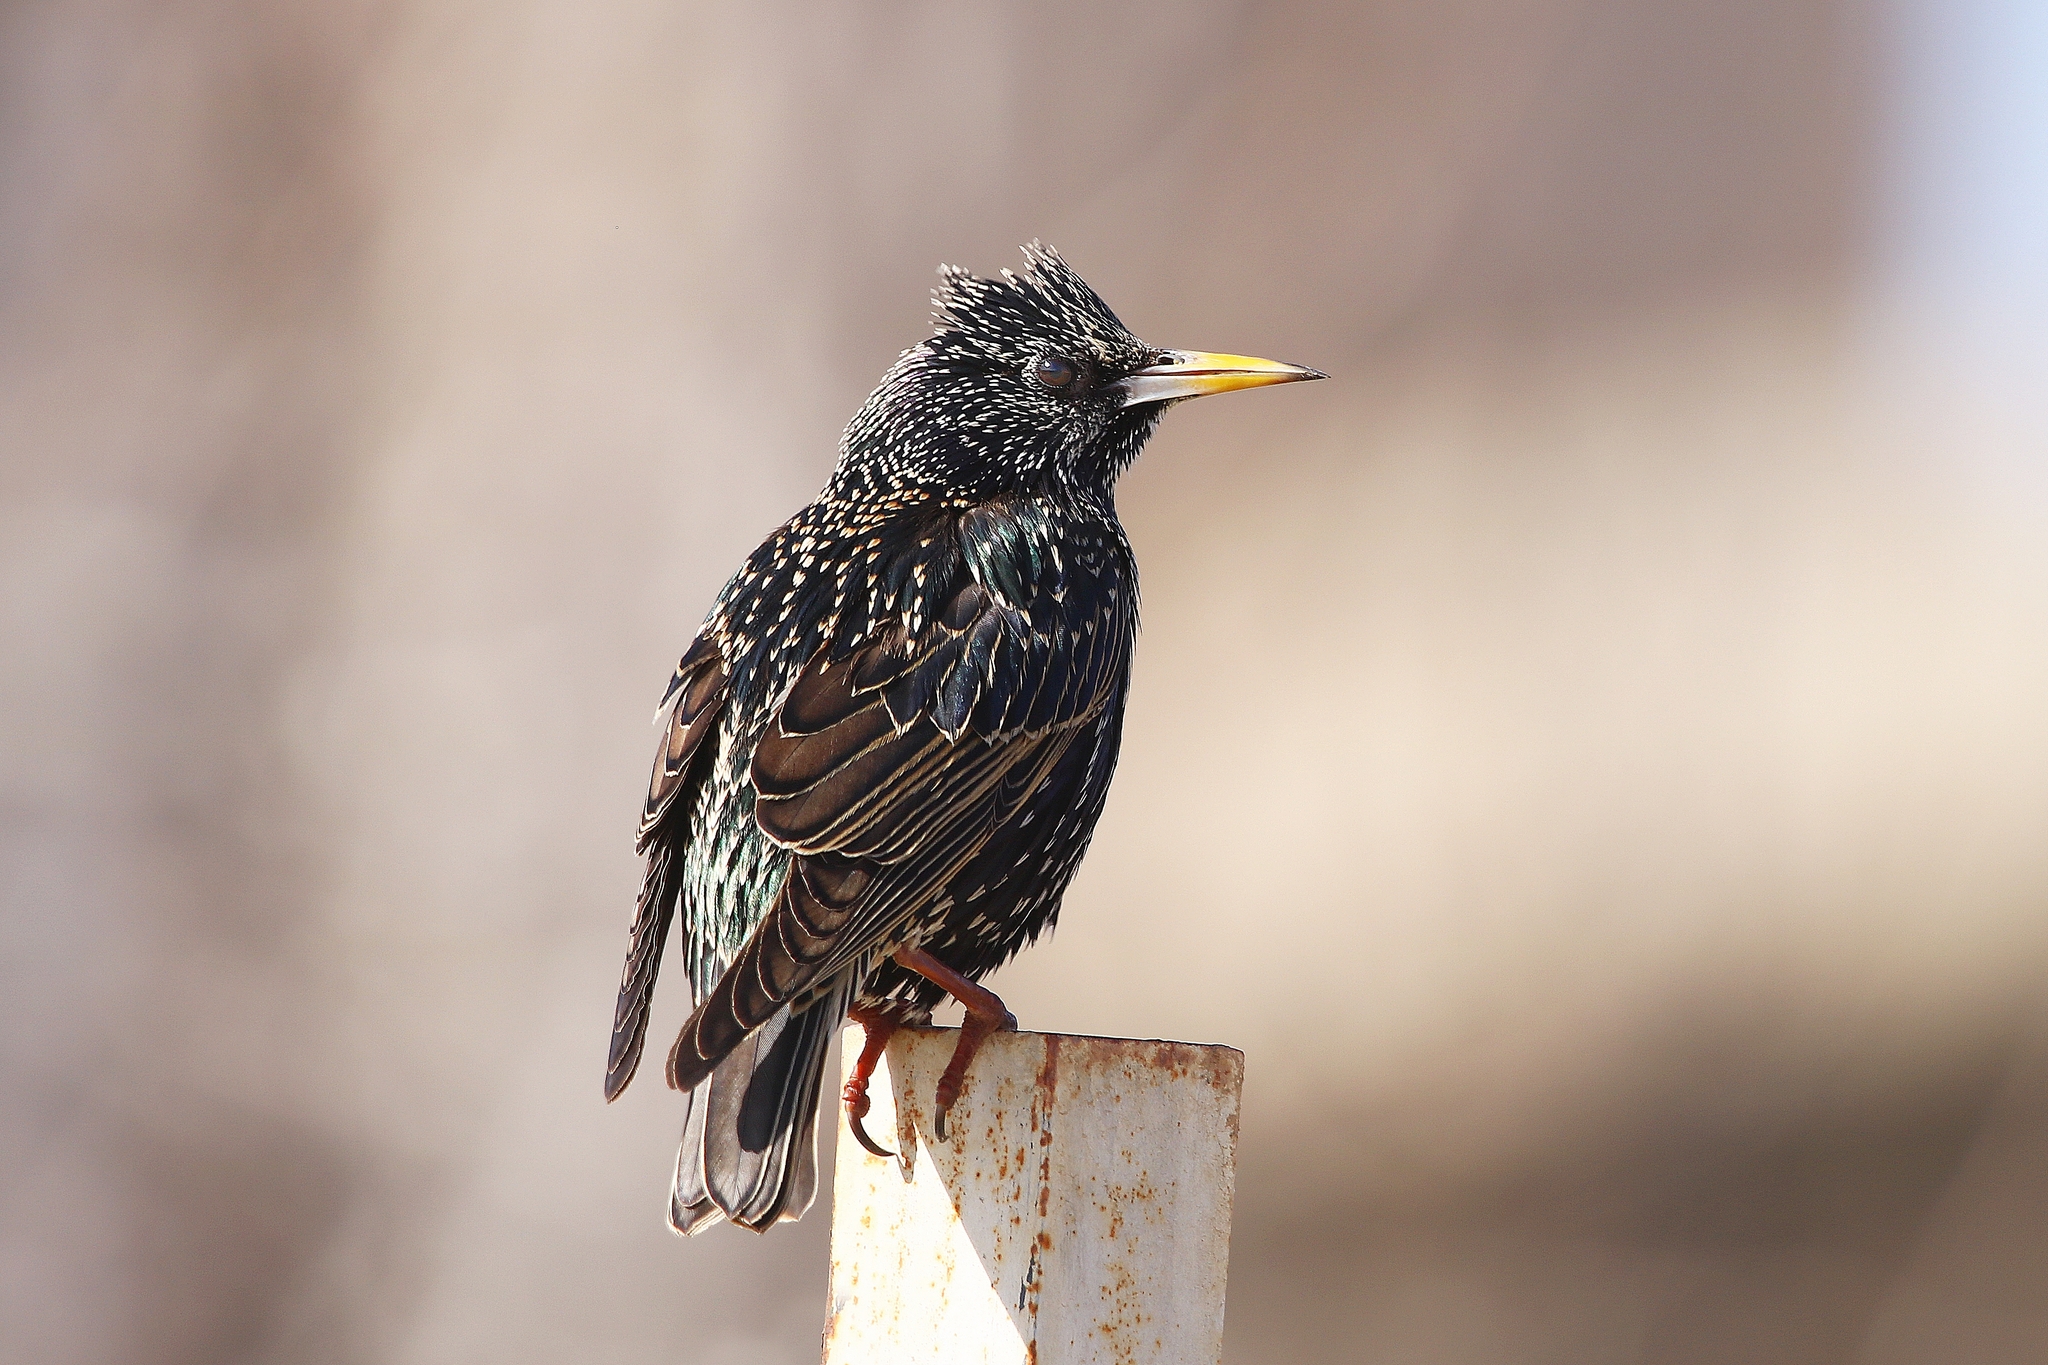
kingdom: Animalia
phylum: Chordata
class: Aves
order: Passeriformes
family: Sturnidae
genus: Sturnus
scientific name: Sturnus vulgaris
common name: Common starling
